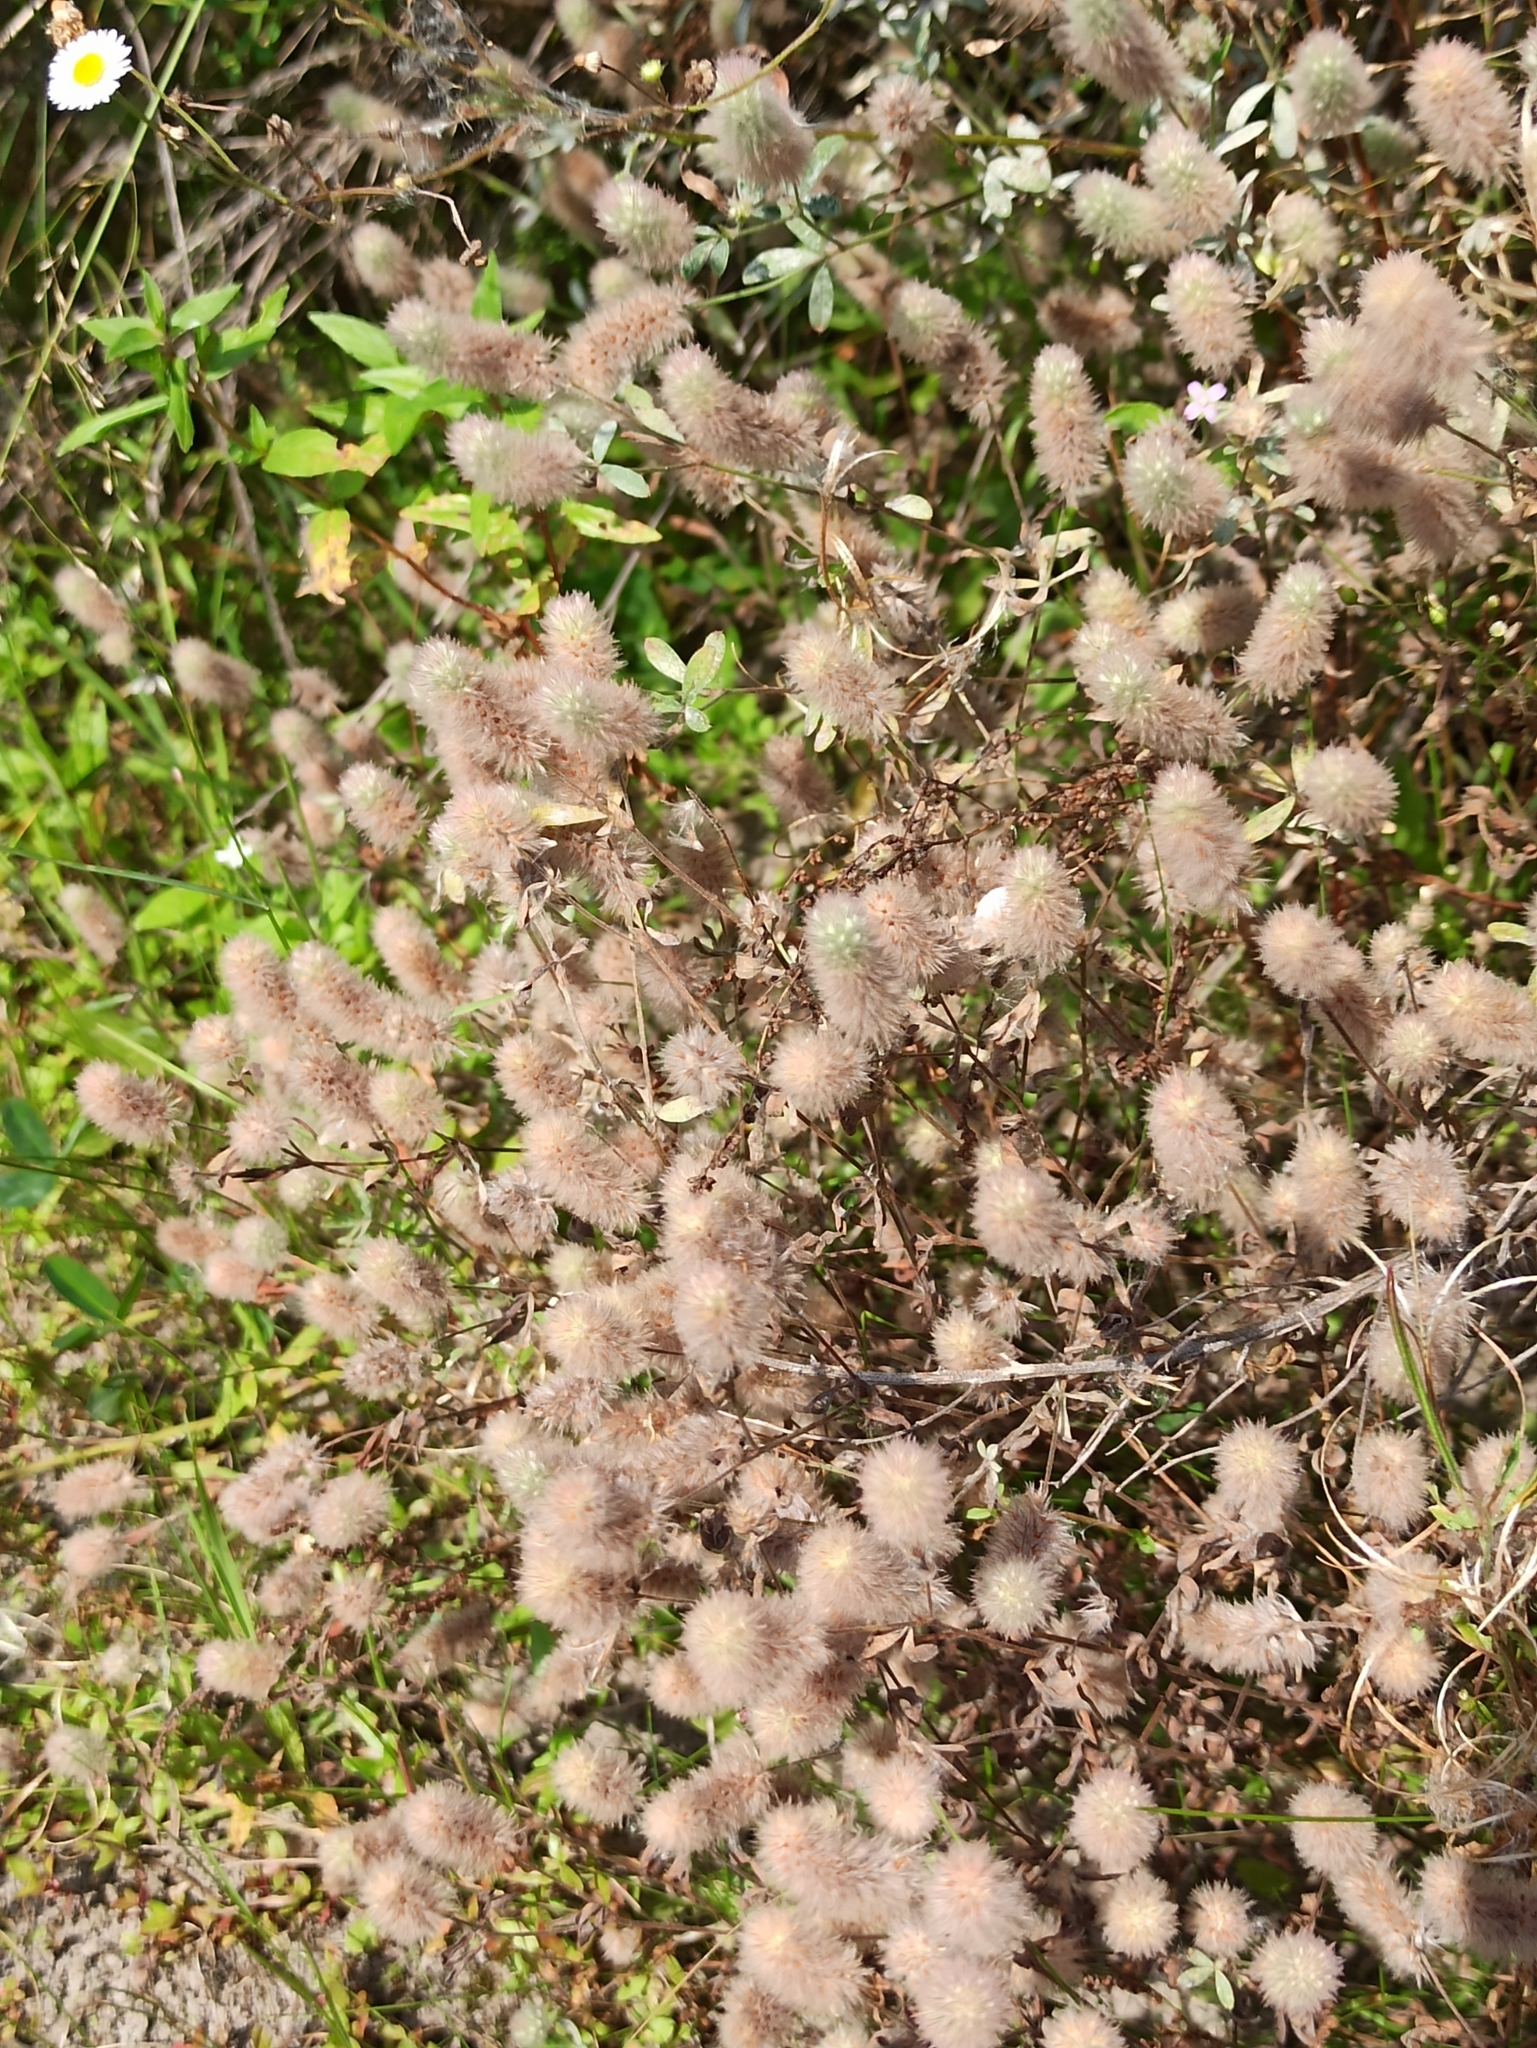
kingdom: Plantae
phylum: Tracheophyta
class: Magnoliopsida
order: Fabales
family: Fabaceae
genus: Trifolium
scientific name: Trifolium arvense
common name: Hare's-foot clover
